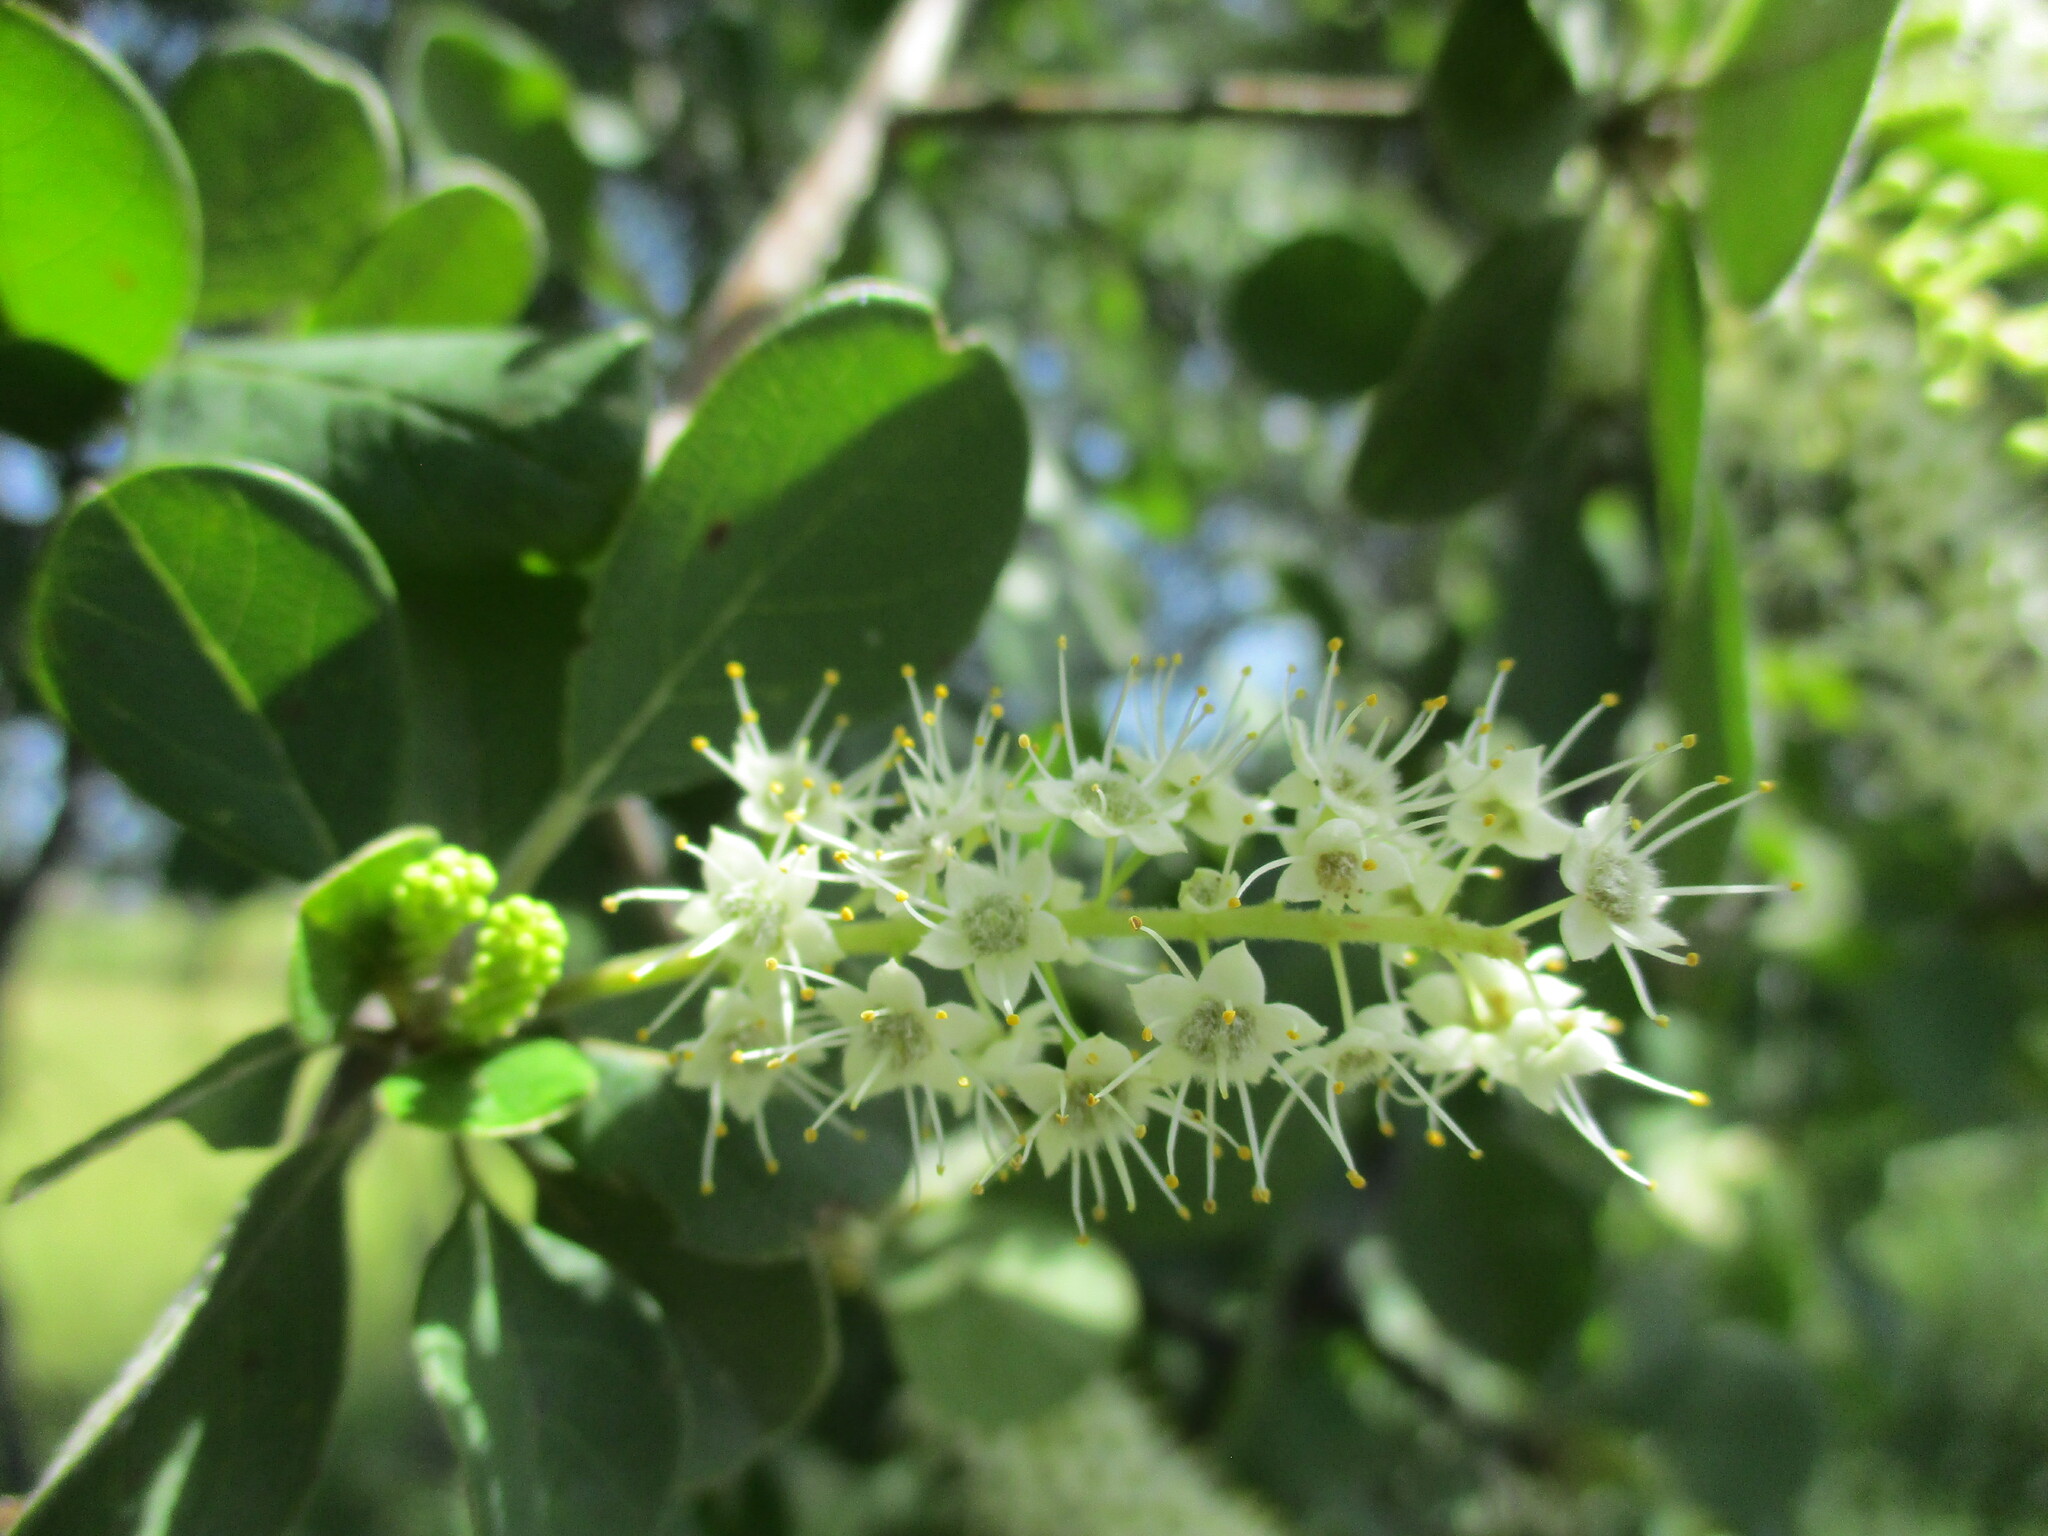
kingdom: Plantae
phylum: Tracheophyta
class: Magnoliopsida
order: Myrtales
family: Combretaceae
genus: Terminalia
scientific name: Terminalia prunioides
